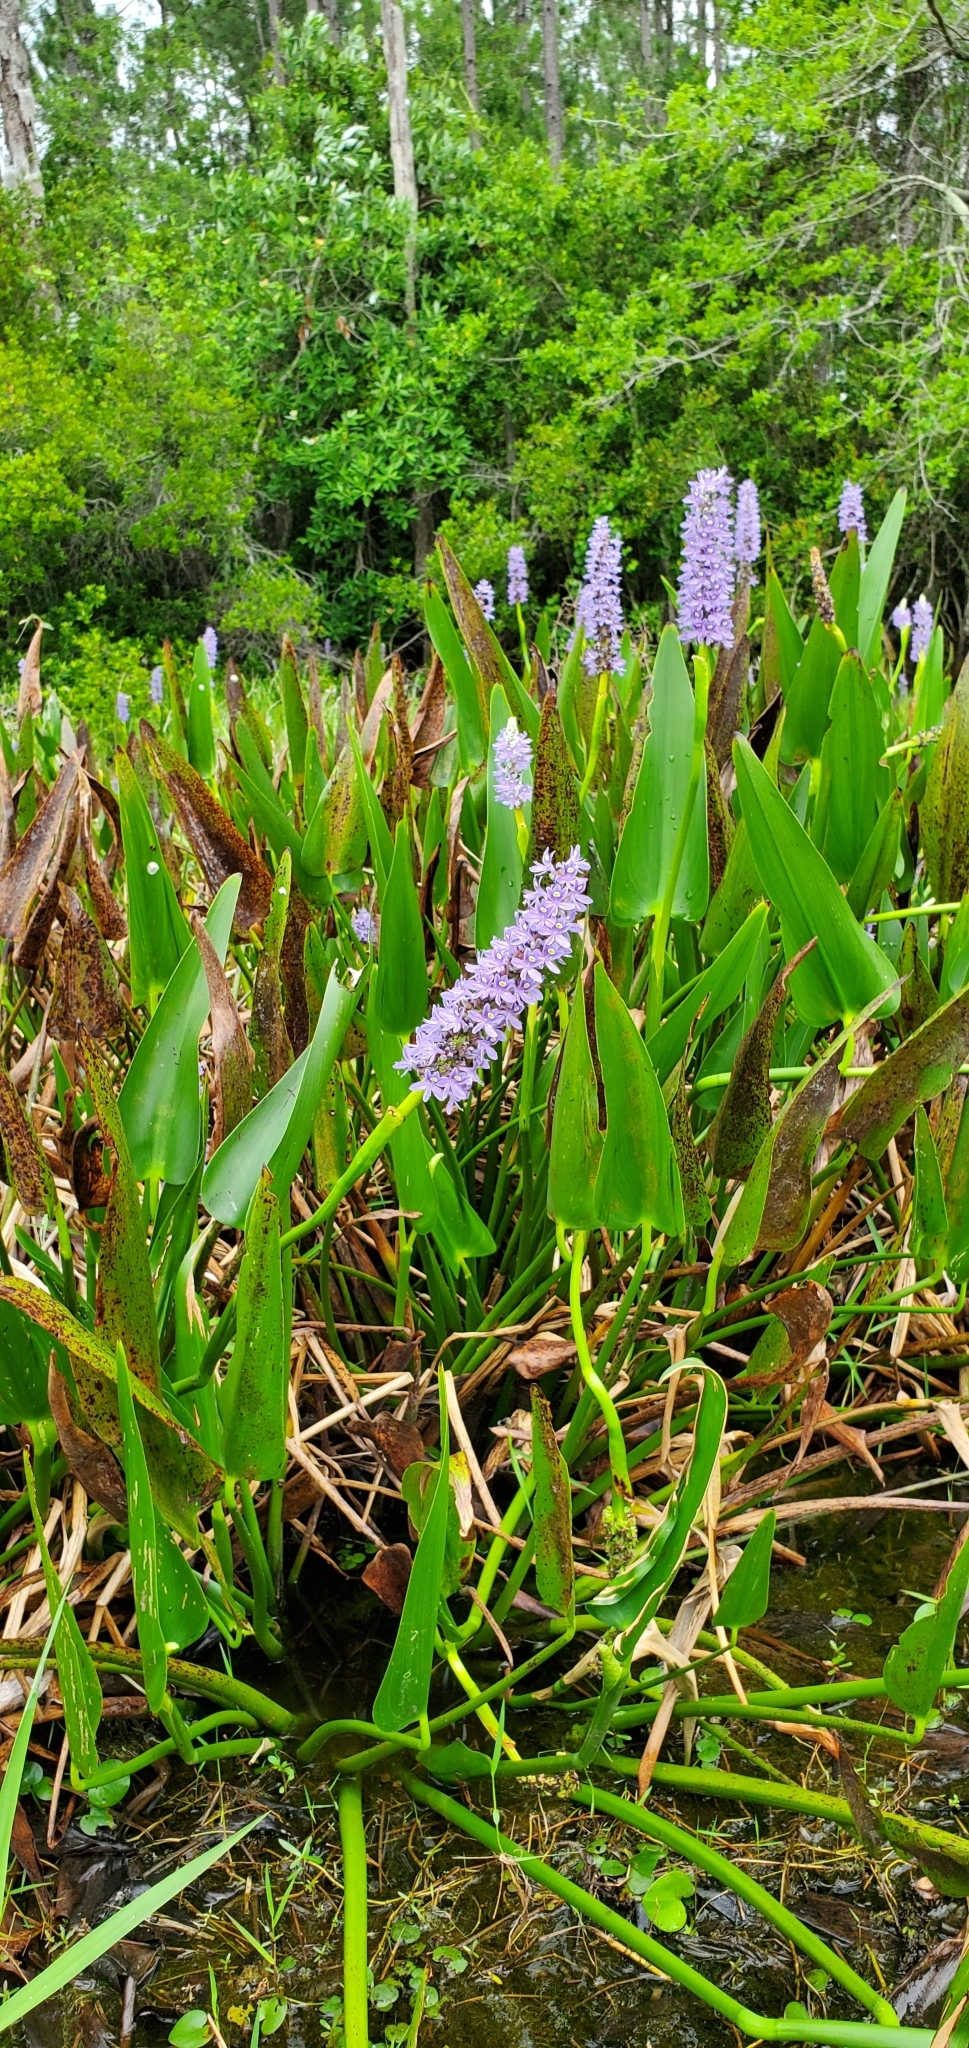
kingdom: Plantae
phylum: Tracheophyta
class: Liliopsida
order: Commelinales
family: Pontederiaceae
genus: Pontederia
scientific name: Pontederia cordata
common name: Pickerelweed
